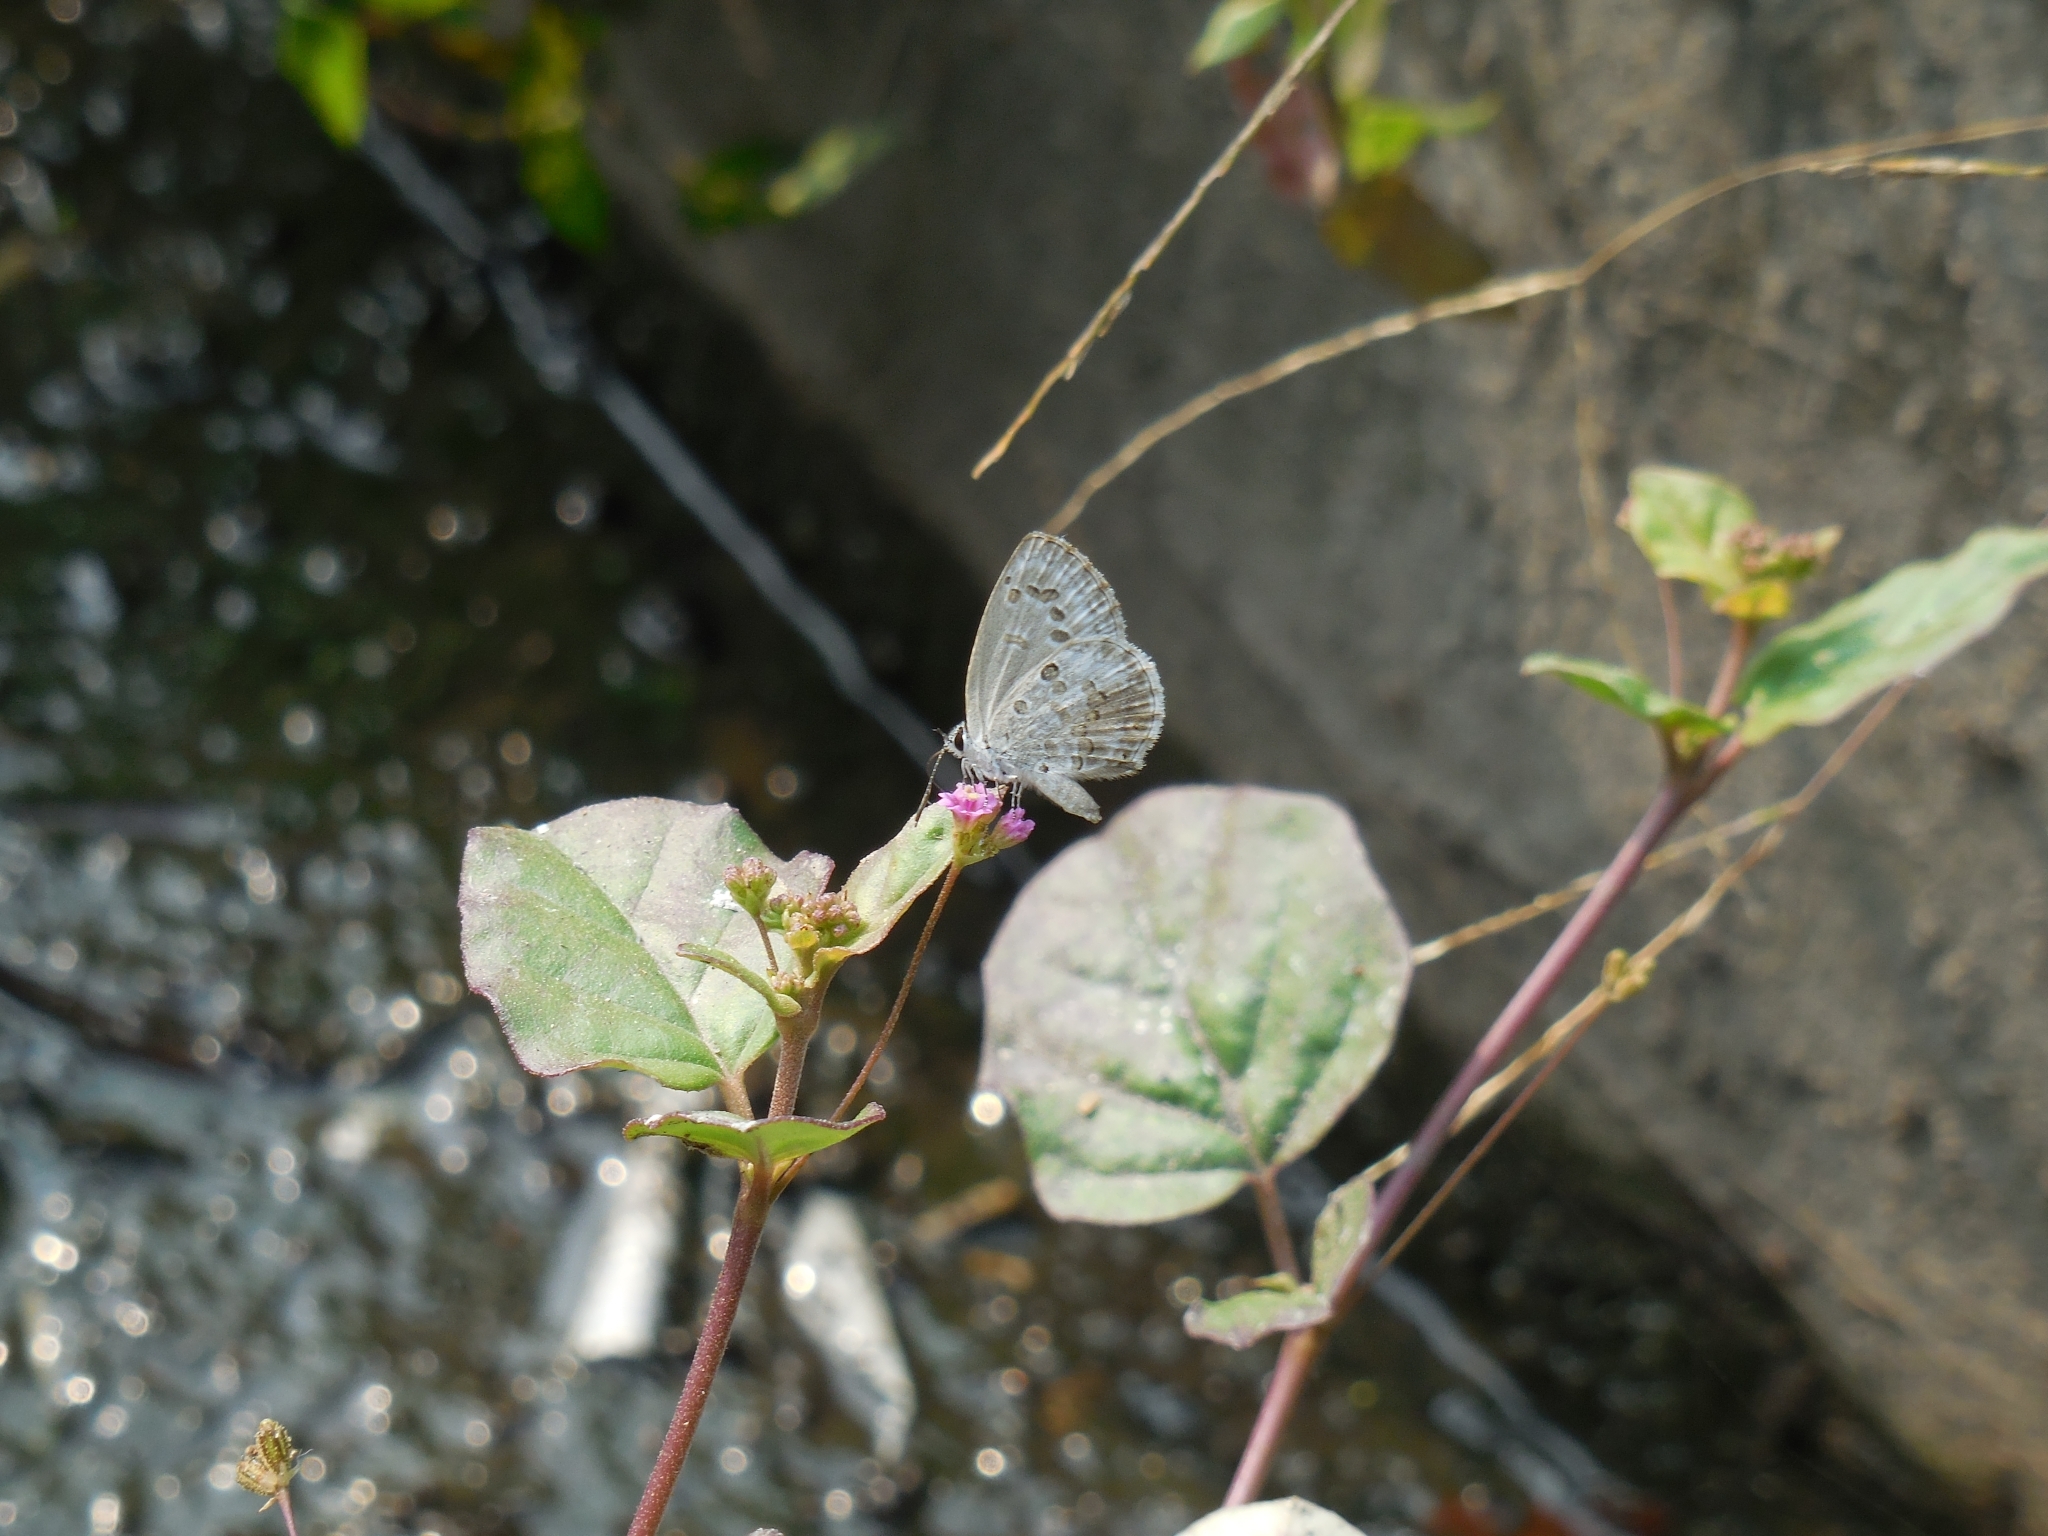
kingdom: Animalia
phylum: Arthropoda
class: Insecta
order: Lepidoptera
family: Lycaenidae
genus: Acytolepis
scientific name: Acytolepis puspa
